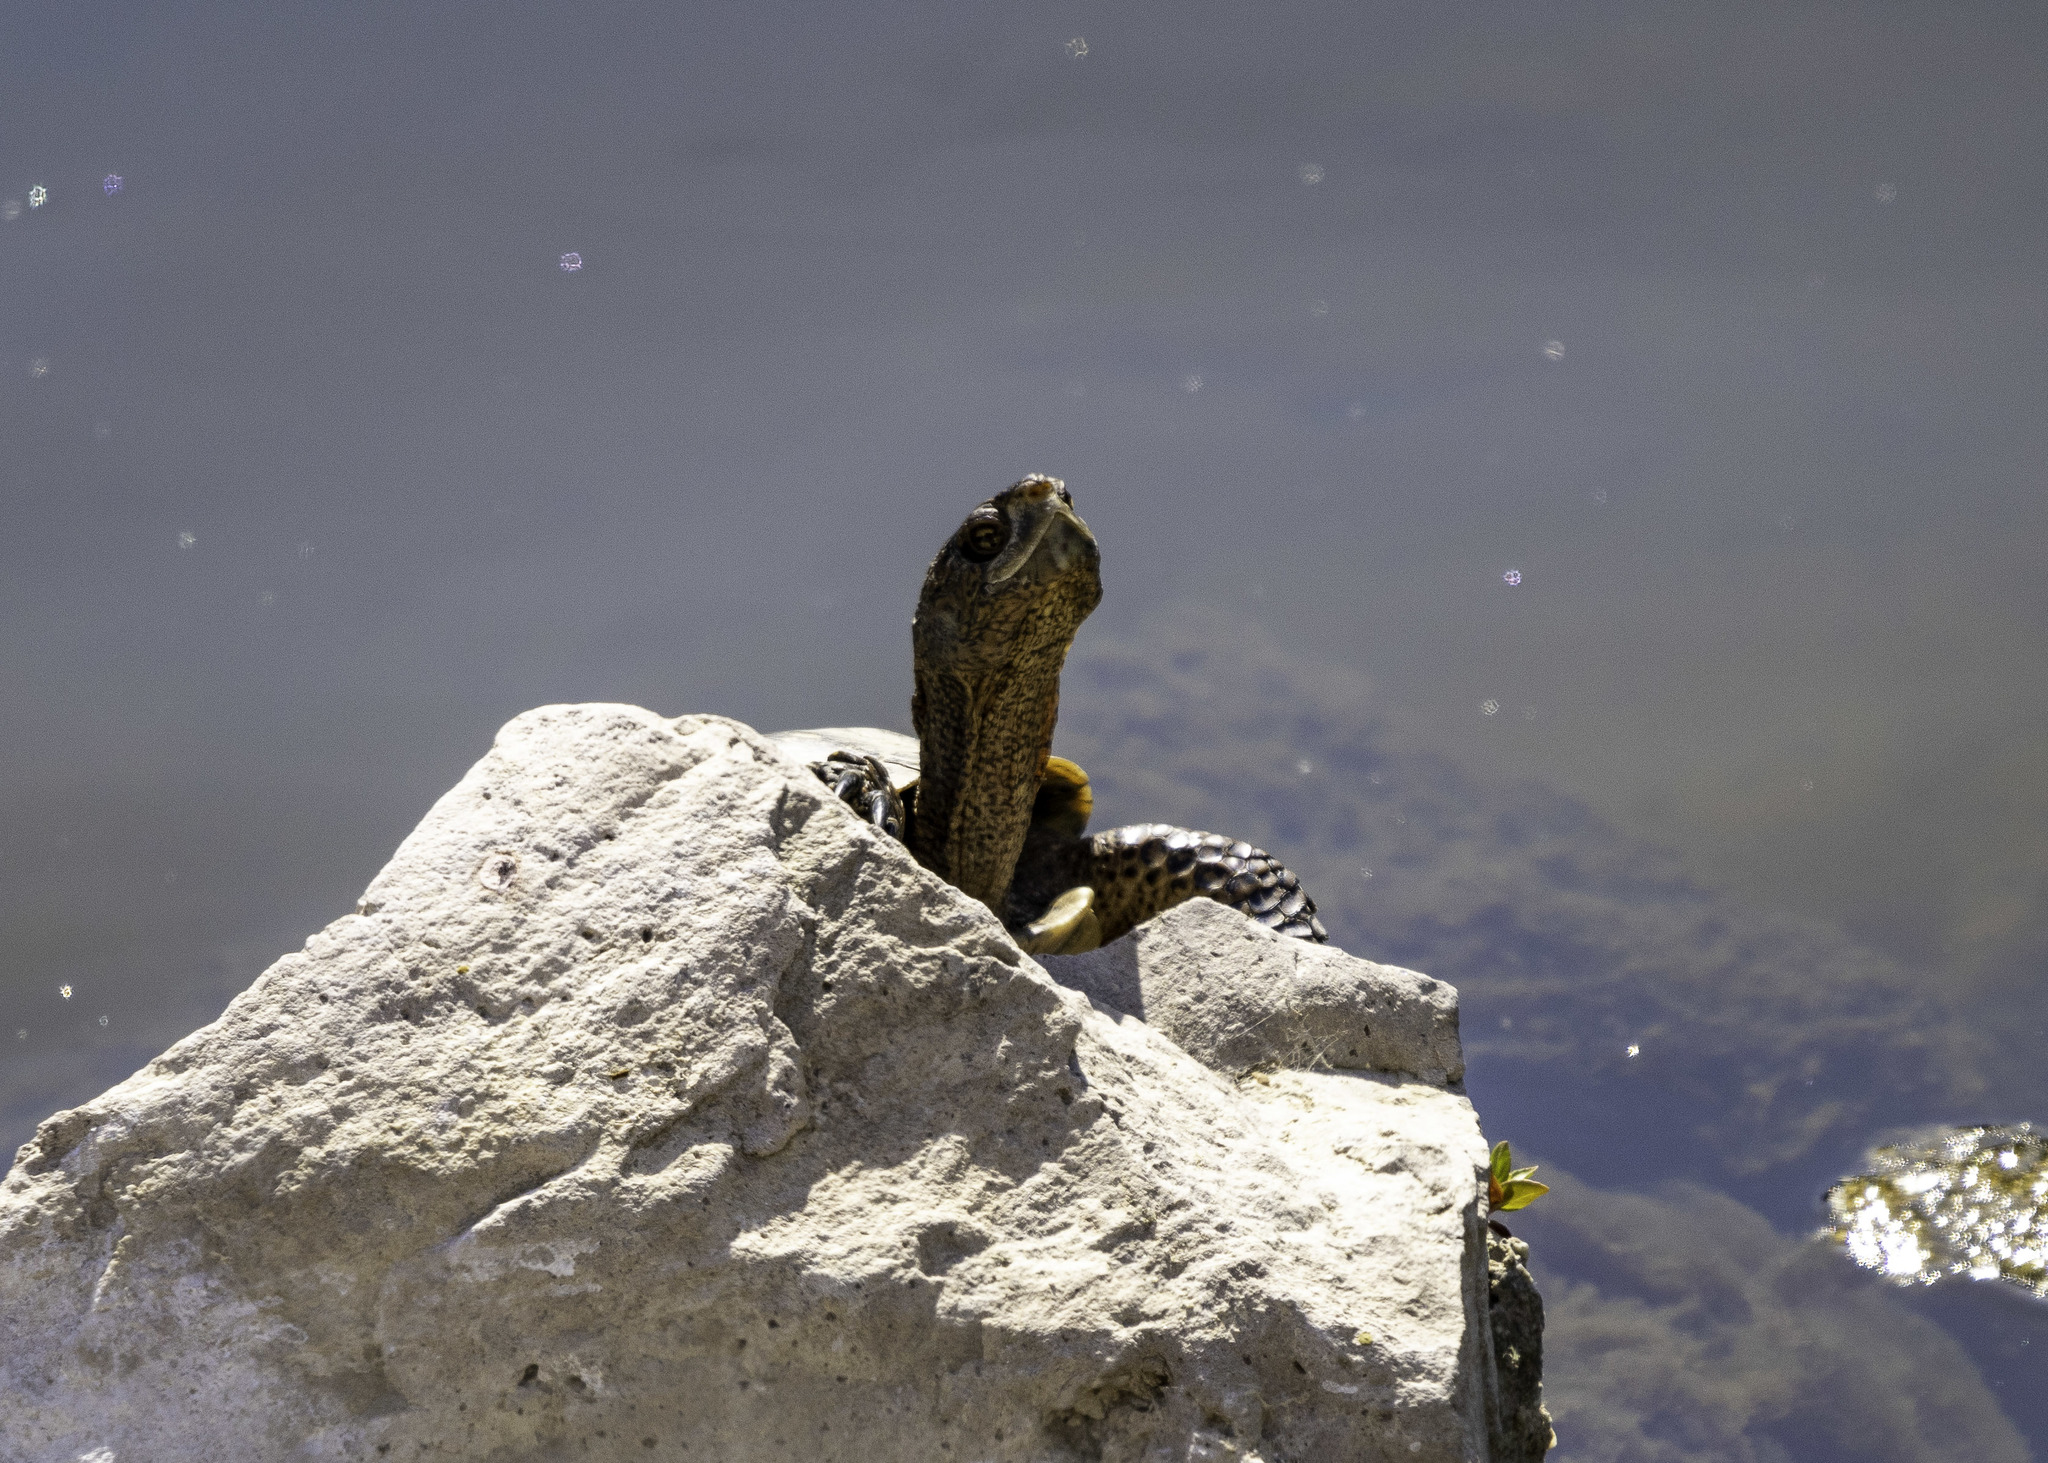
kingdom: Animalia
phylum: Chordata
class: Testudines
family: Emydidae
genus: Actinemys
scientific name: Actinemys pallida
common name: Southern pacific pond turtle
